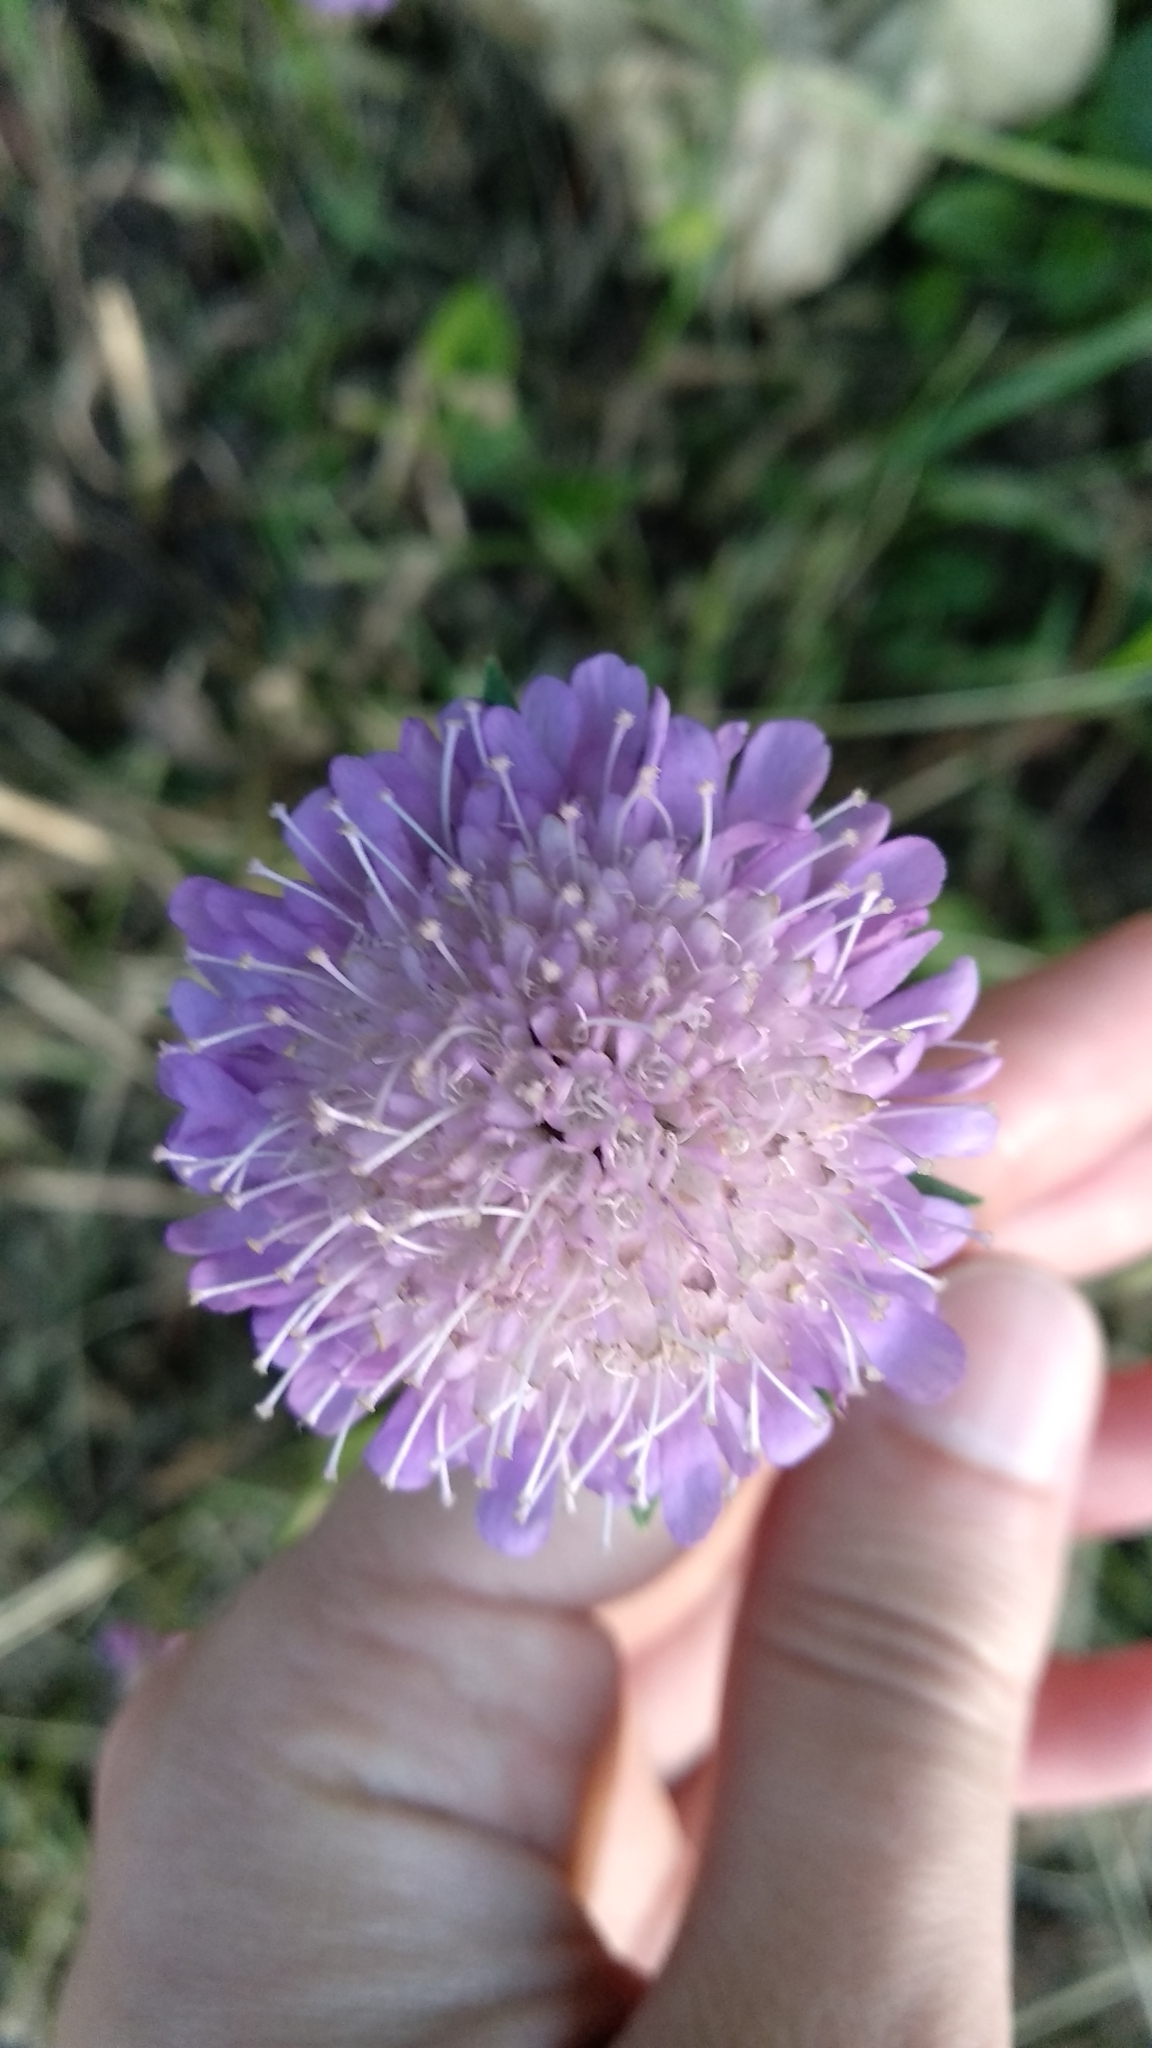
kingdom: Plantae
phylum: Tracheophyta
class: Magnoliopsida
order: Dipsacales
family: Caprifoliaceae
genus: Knautia
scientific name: Knautia arvensis
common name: Field scabiosa
